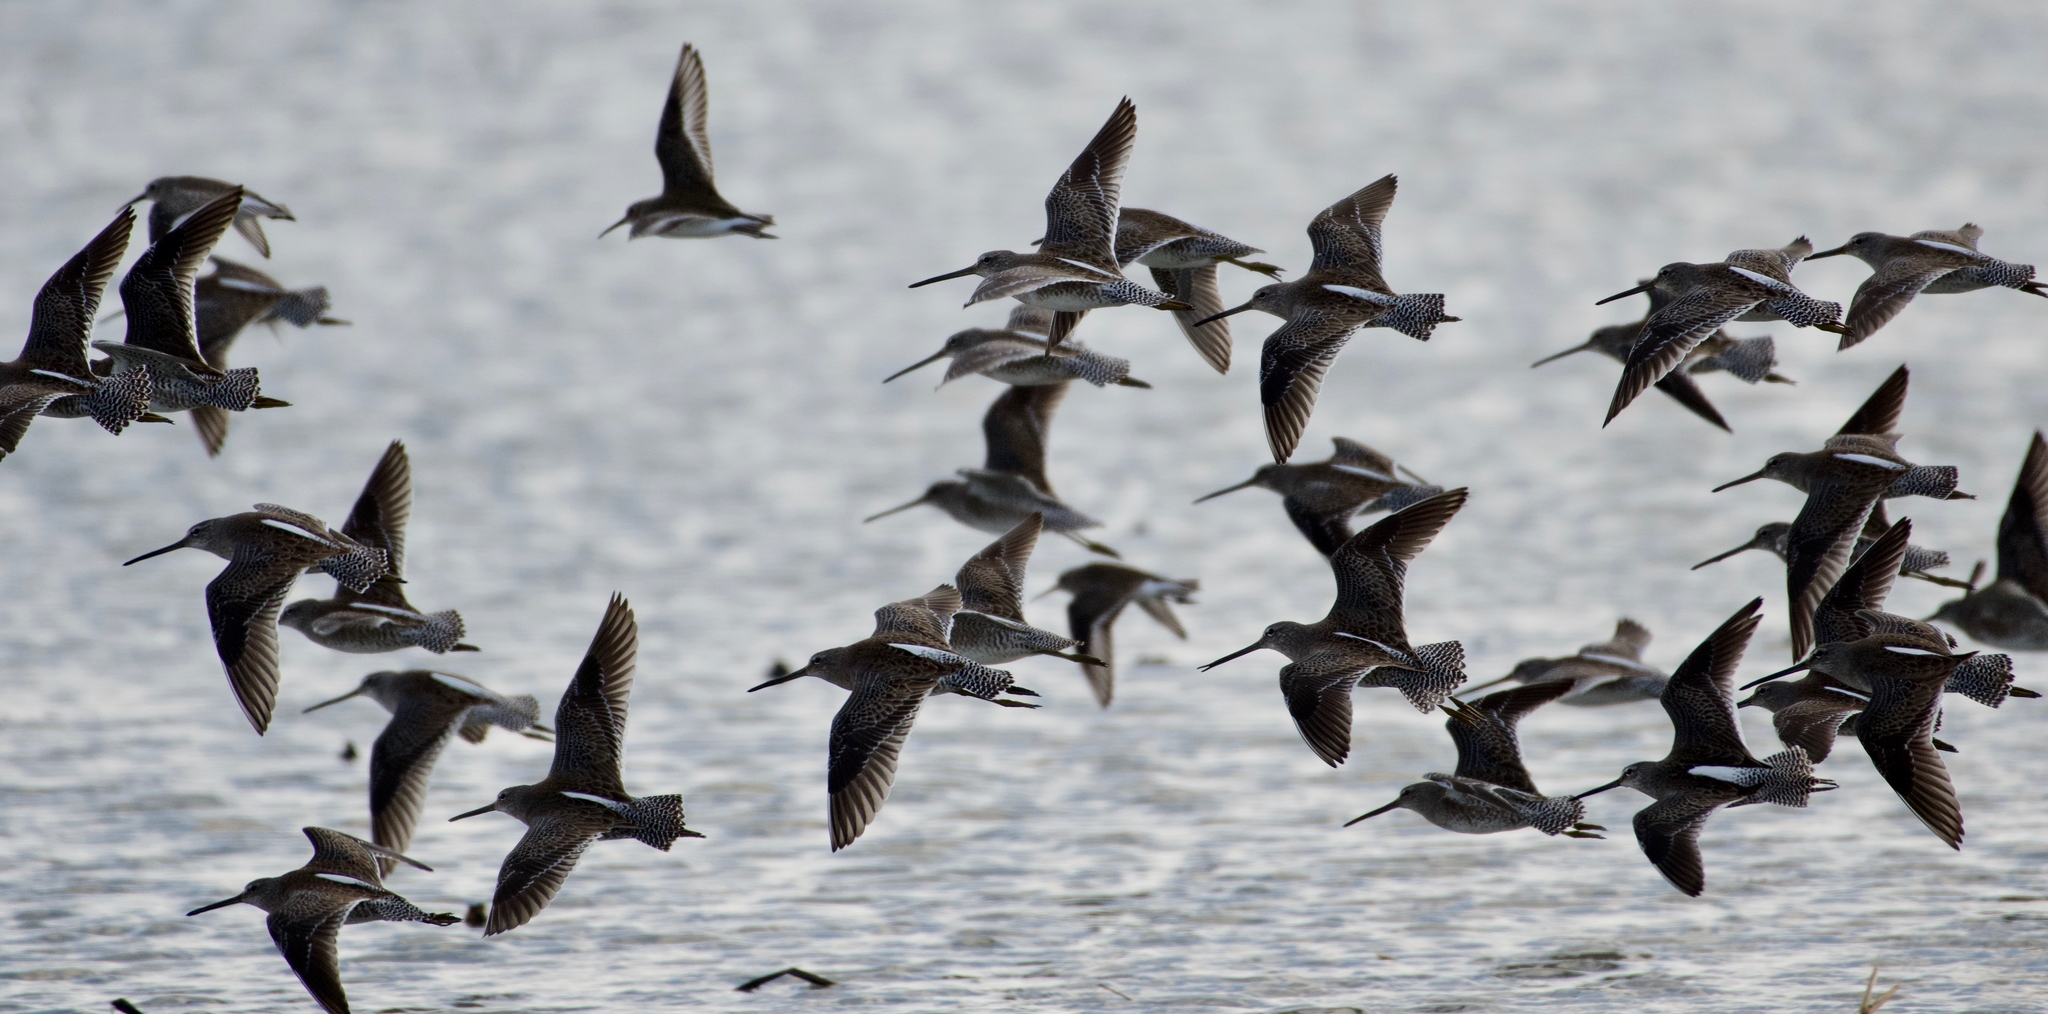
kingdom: Animalia
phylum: Chordata
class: Aves
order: Charadriiformes
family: Scolopacidae
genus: Limnodromus
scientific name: Limnodromus scolopaceus
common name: Long-billed dowitcher
